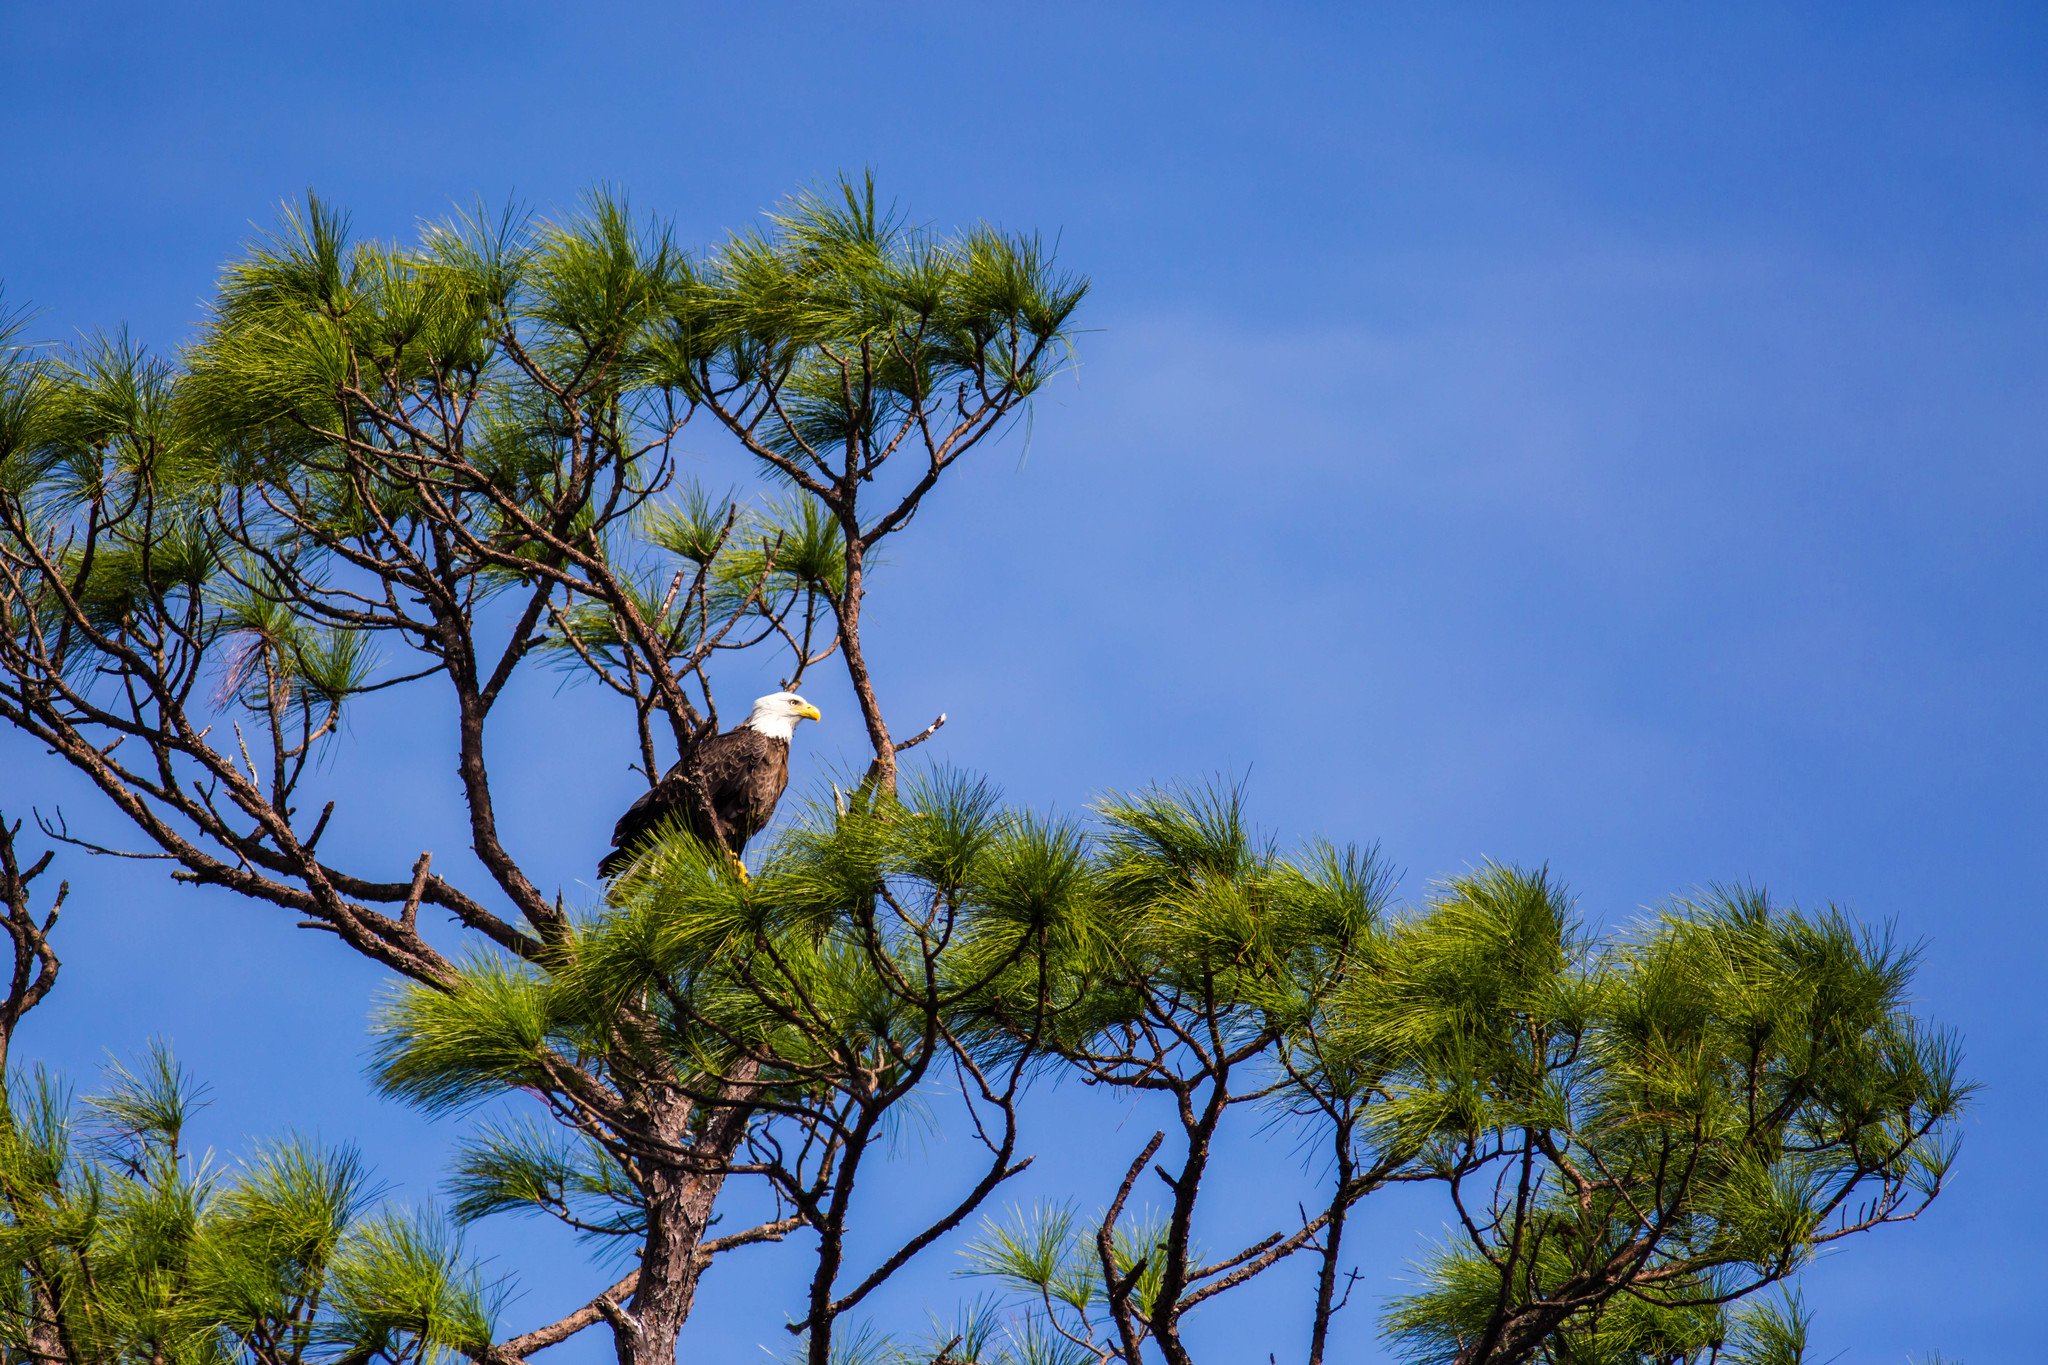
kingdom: Animalia
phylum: Chordata
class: Aves
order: Accipitriformes
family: Accipitridae
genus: Haliaeetus
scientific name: Haliaeetus leucocephalus
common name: Bald eagle
